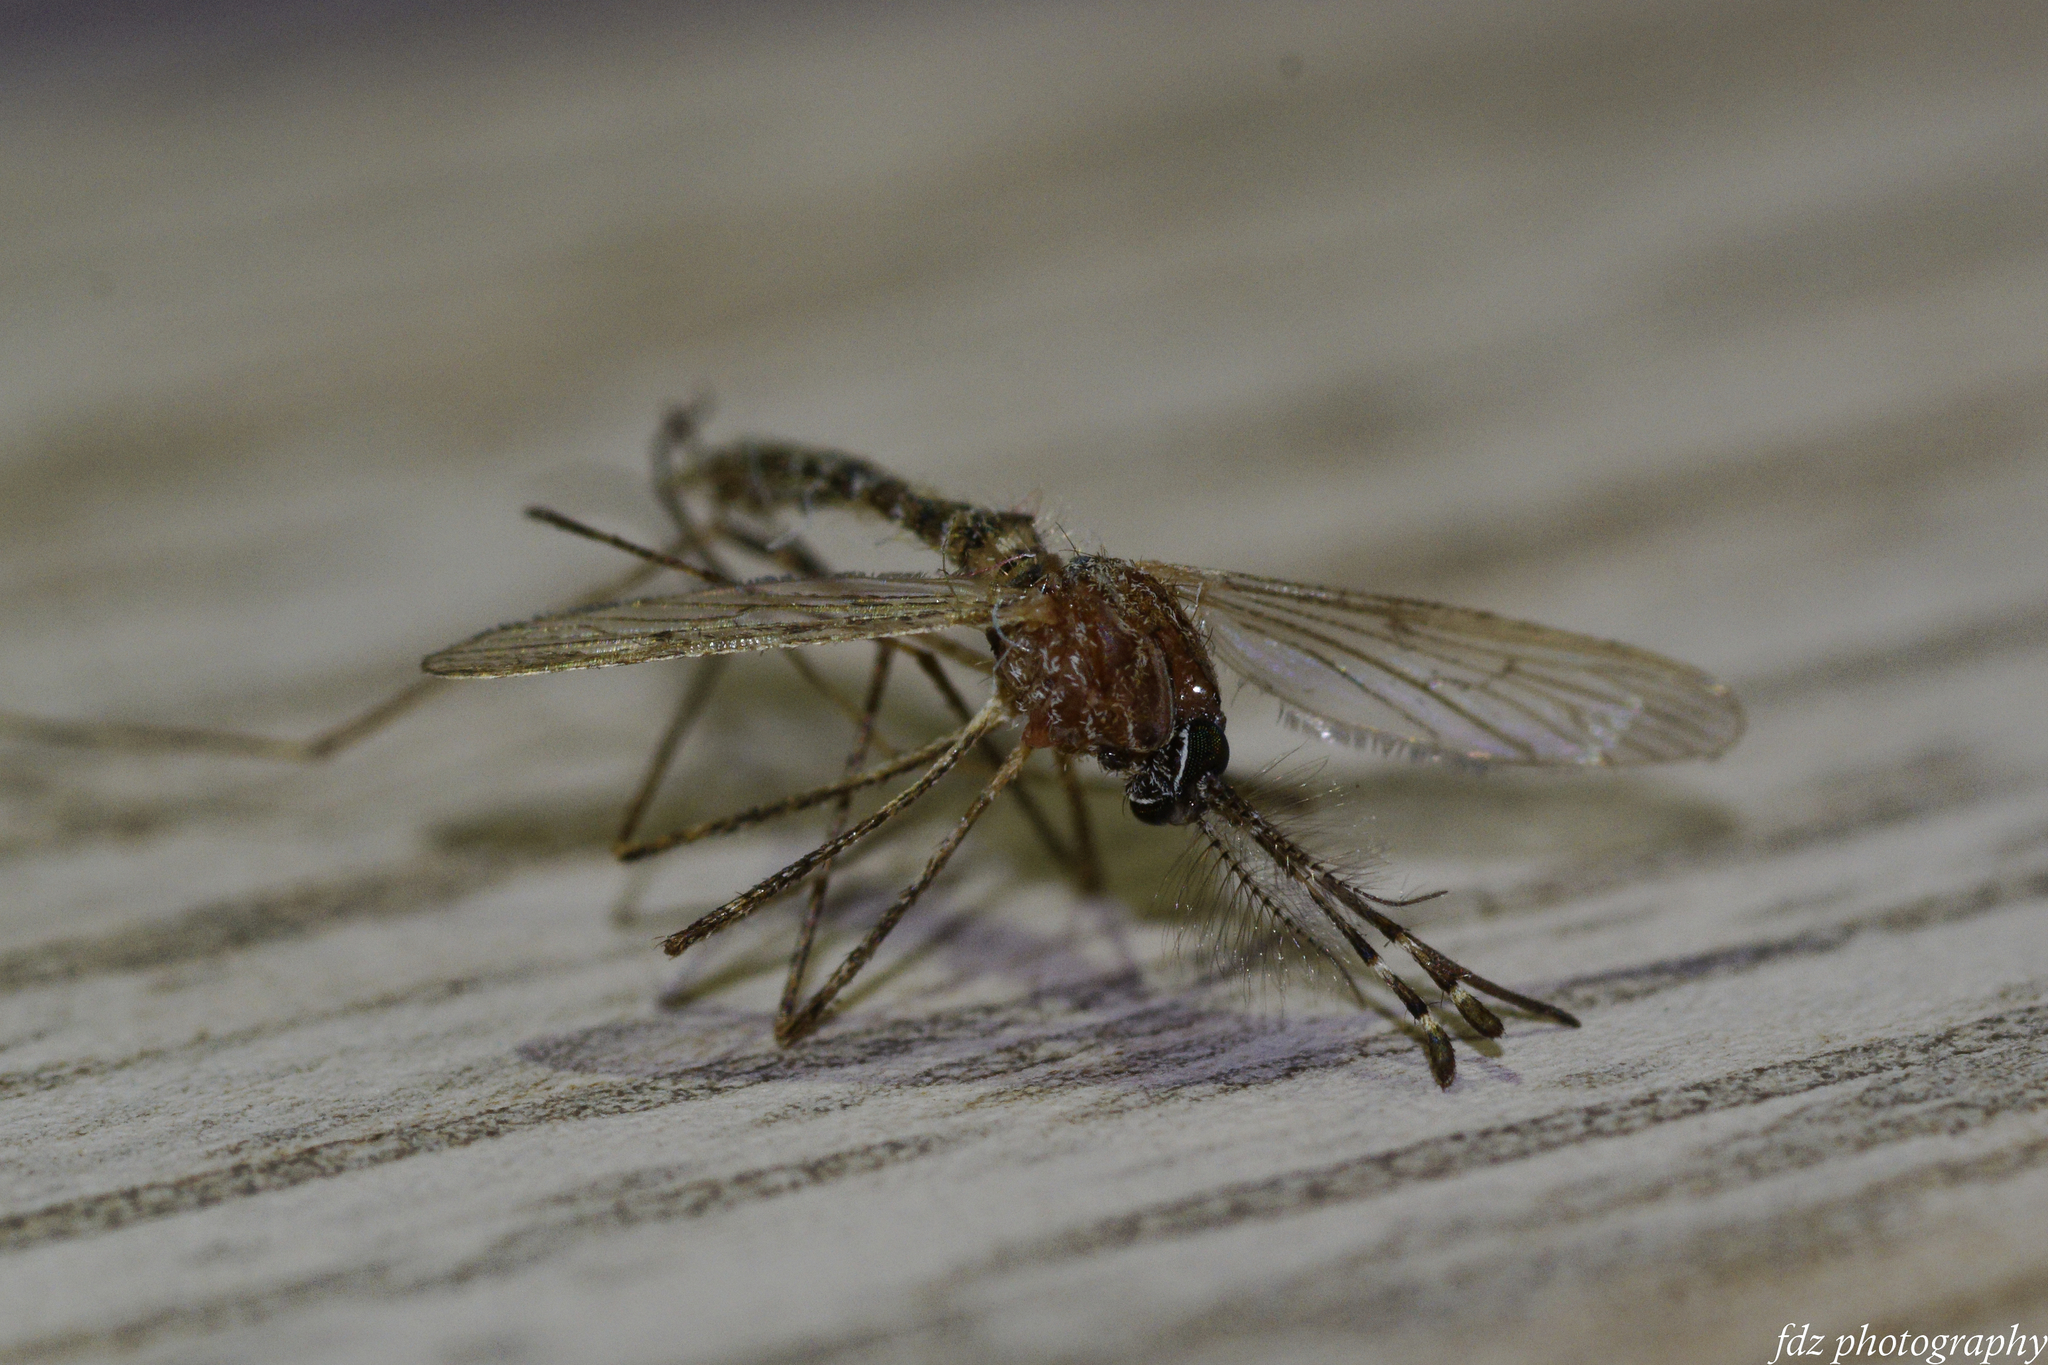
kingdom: Animalia
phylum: Arthropoda
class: Insecta
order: Diptera
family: Culicidae
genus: Culiseta
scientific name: Culiseta longiareolata
